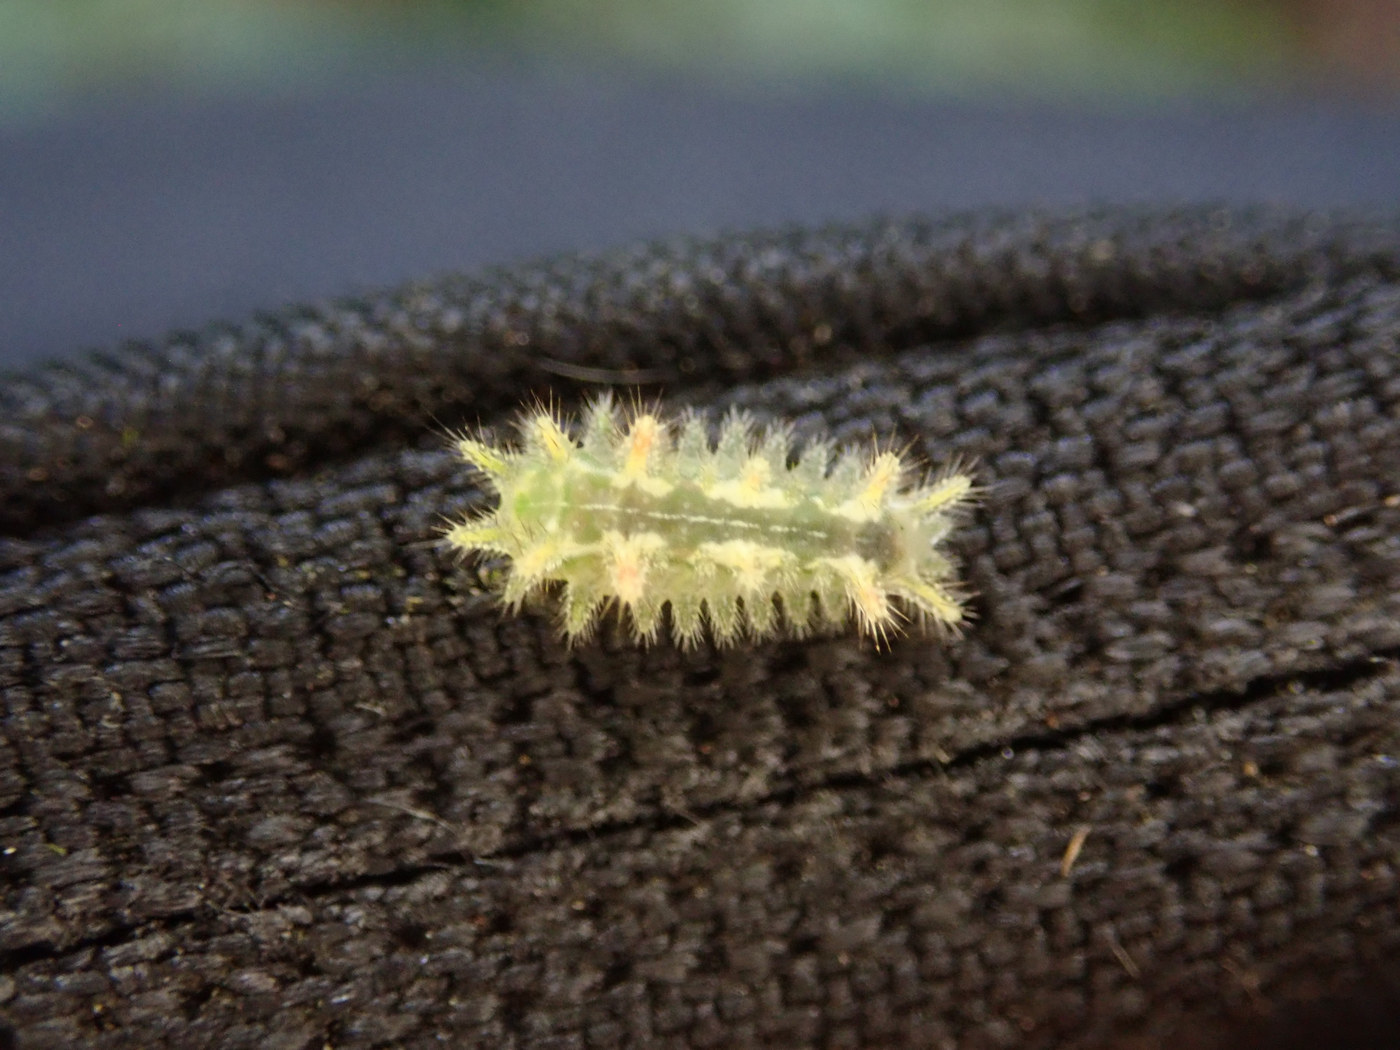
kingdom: Animalia
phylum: Arthropoda
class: Insecta
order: Lepidoptera
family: Limacodidae
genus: Euclea
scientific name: Euclea delphinii
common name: Spiny oak-slug moth
